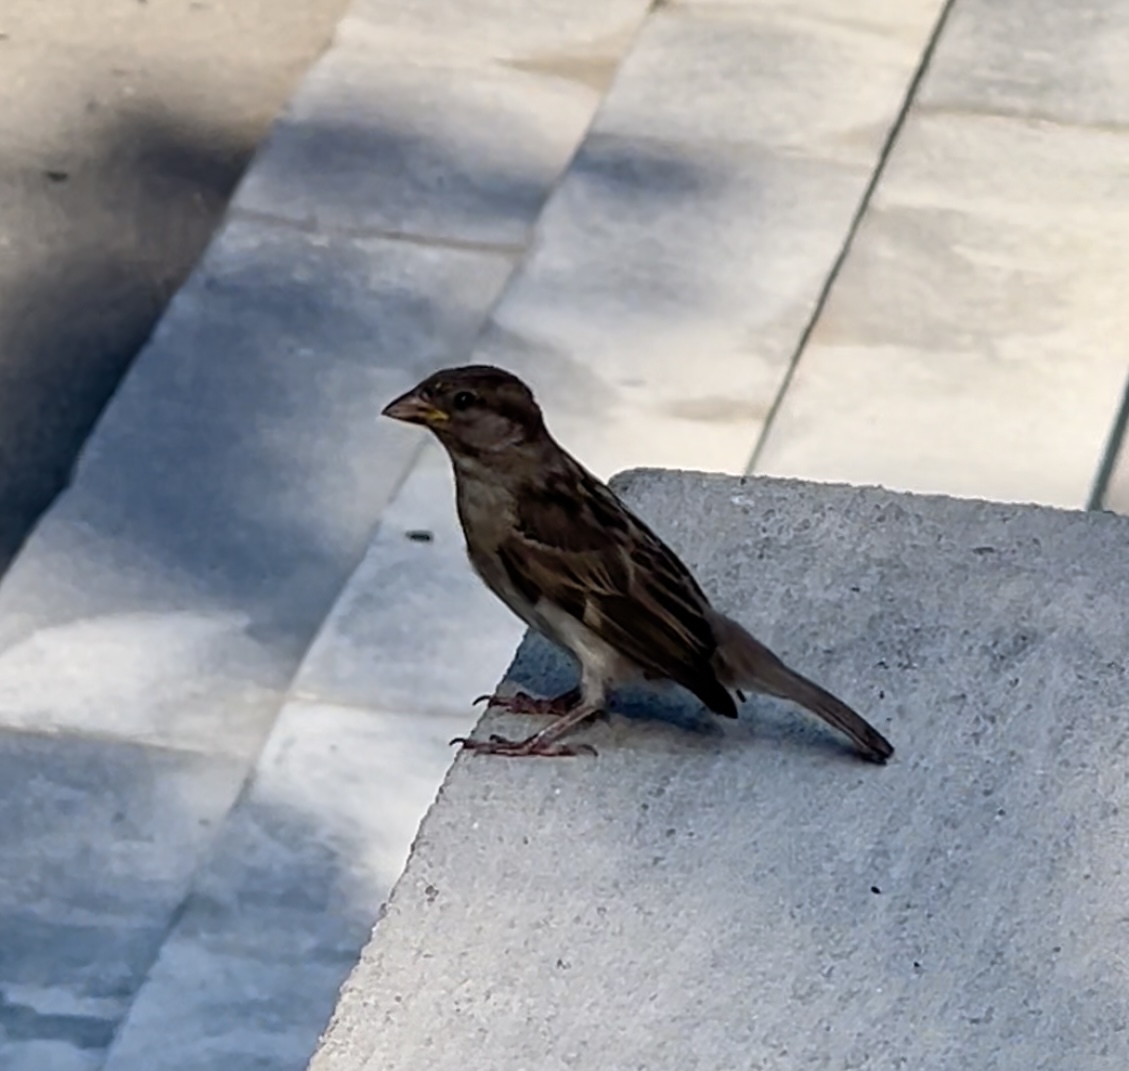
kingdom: Animalia
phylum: Chordata
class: Aves
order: Passeriformes
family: Passeridae
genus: Passer
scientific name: Passer domesticus
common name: House sparrow
